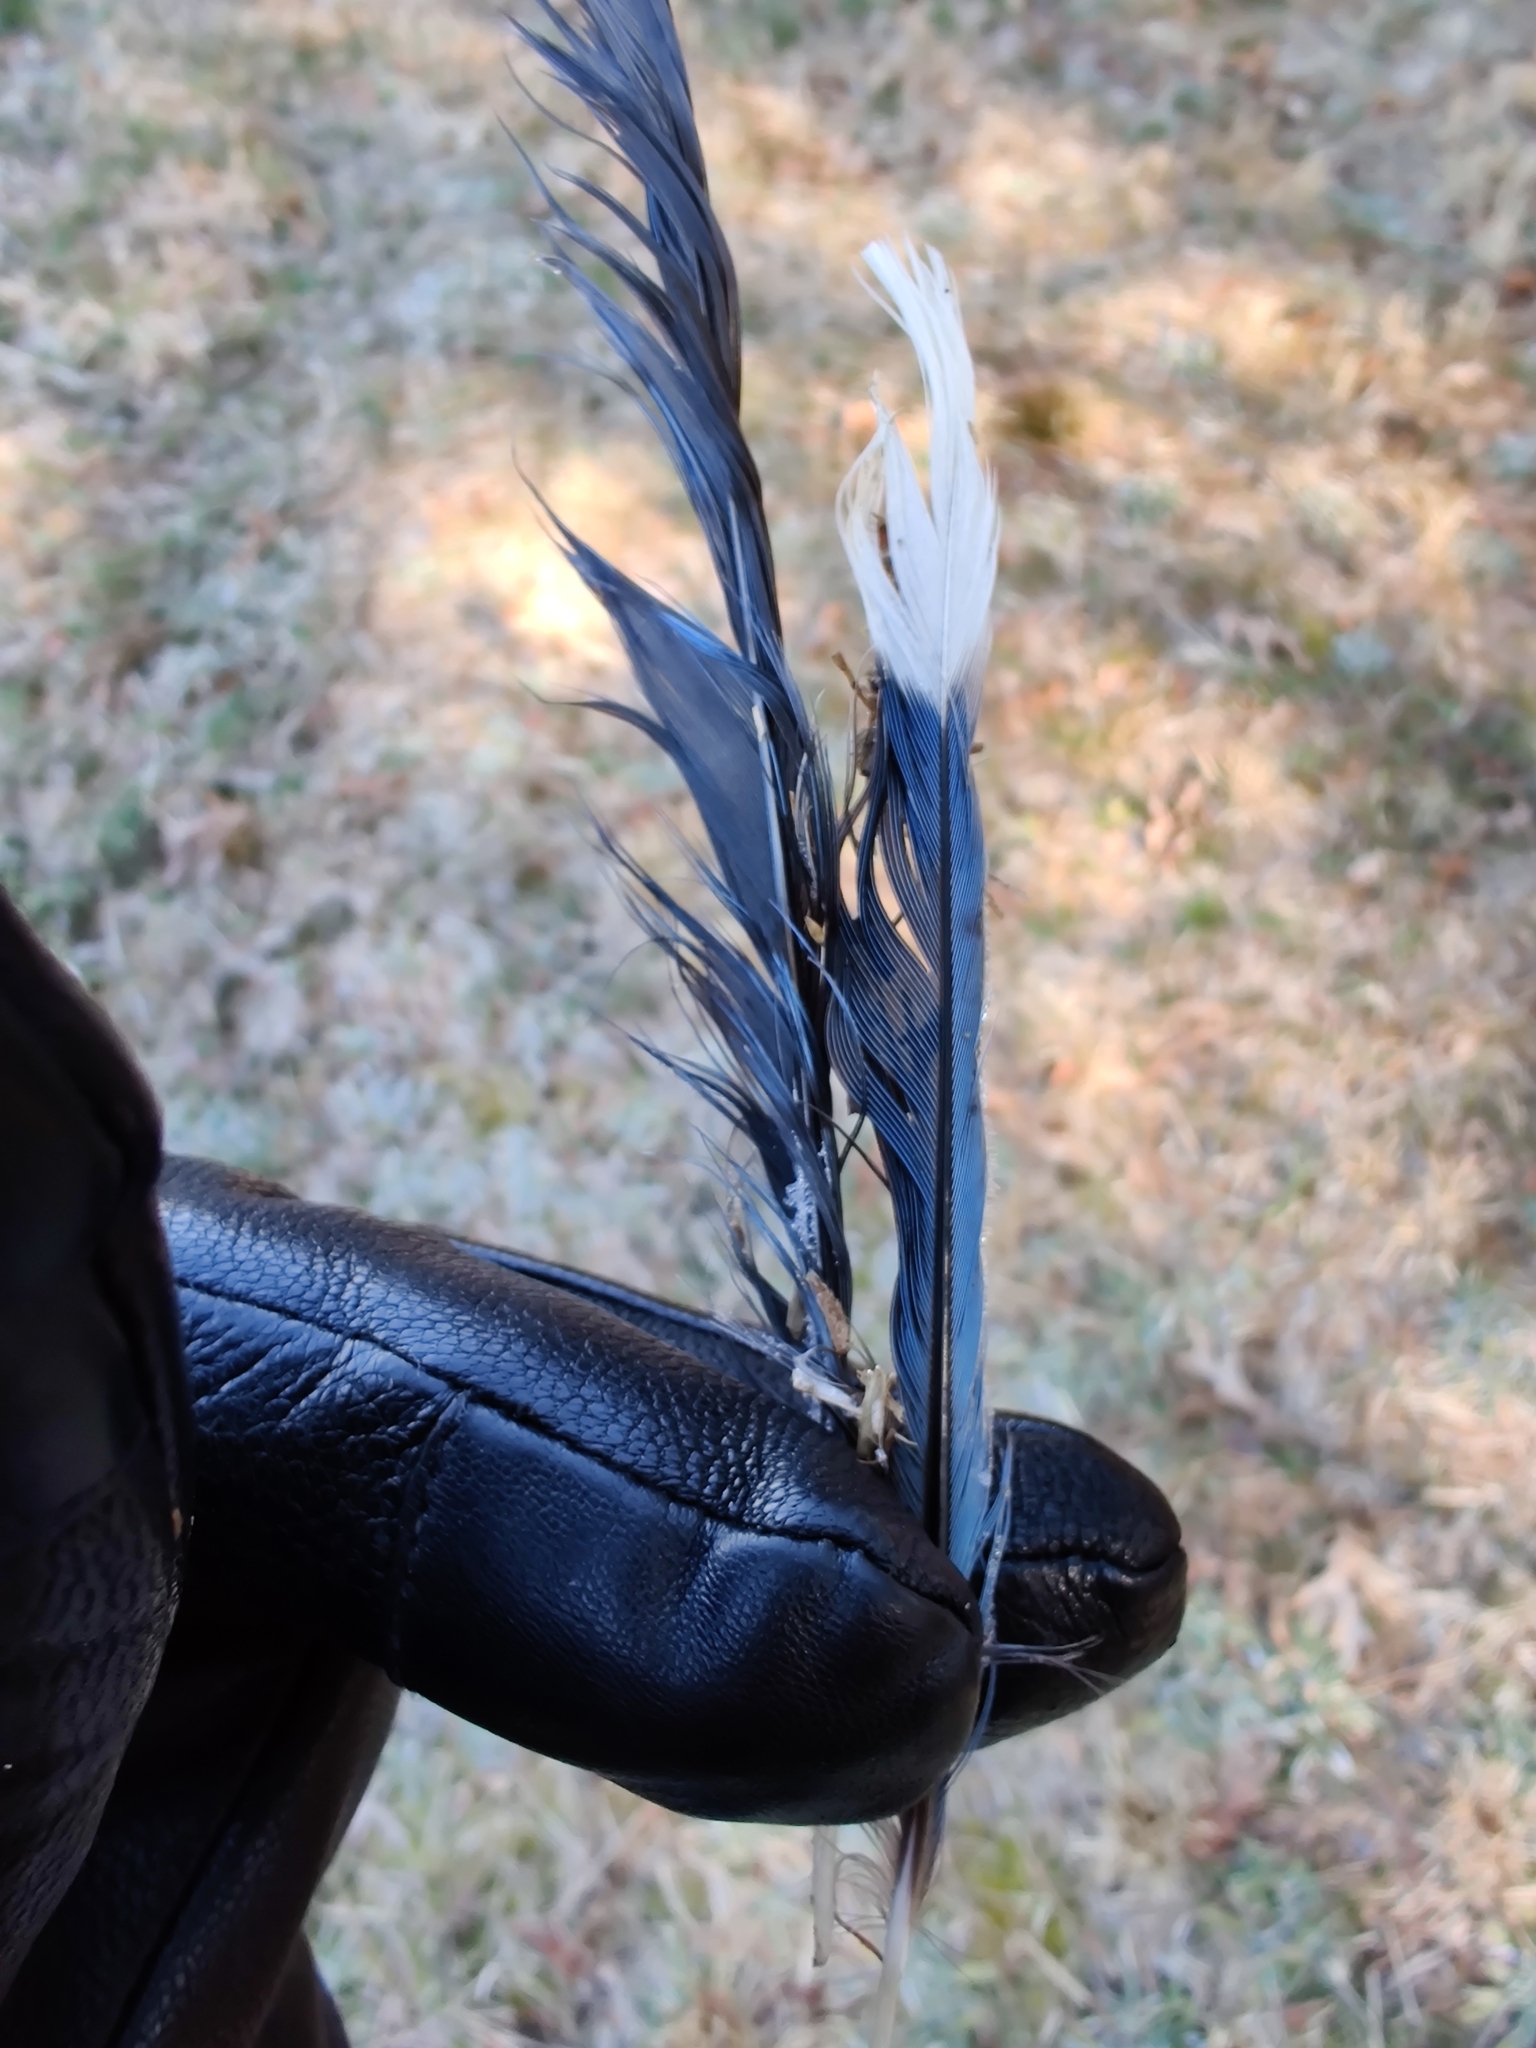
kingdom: Animalia
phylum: Chordata
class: Aves
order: Passeriformes
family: Corvidae
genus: Cyanocitta
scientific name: Cyanocitta cristata
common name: Blue jay
